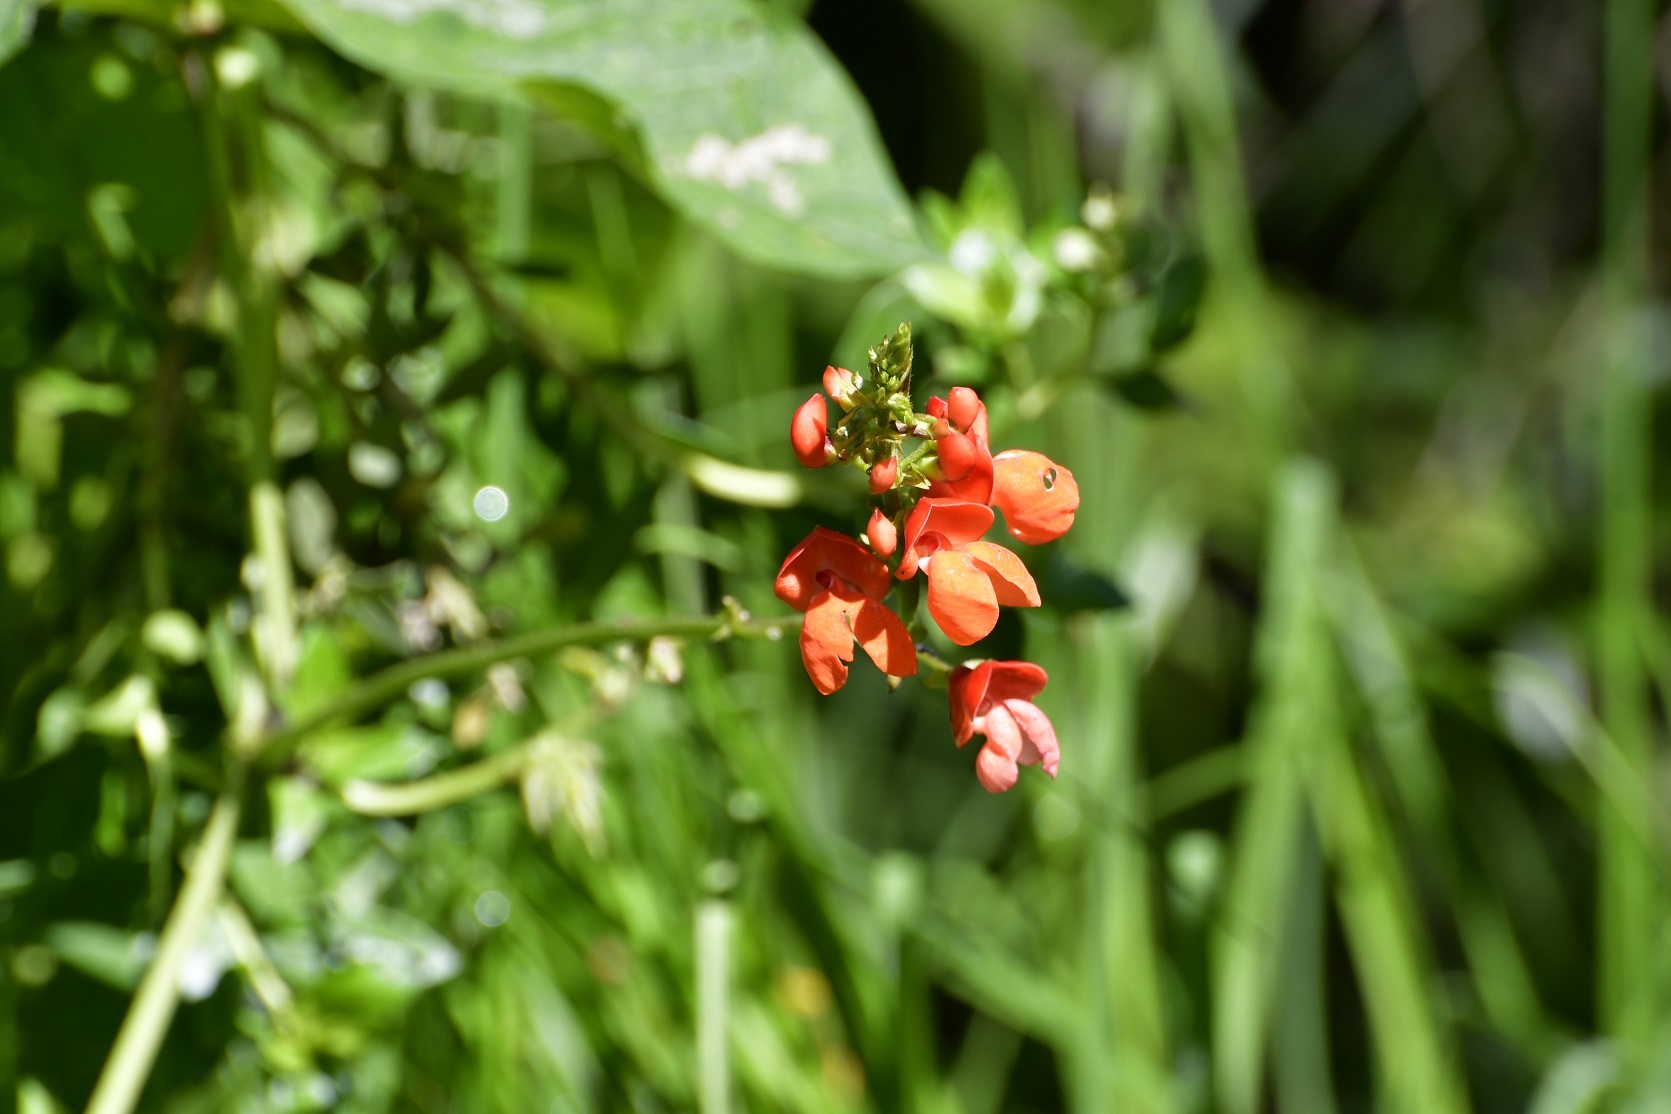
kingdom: Plantae
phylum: Tracheophyta
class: Magnoliopsida
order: Fabales
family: Fabaceae
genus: Phaseolus
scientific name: Phaseolus coccineus
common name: Runner bean
